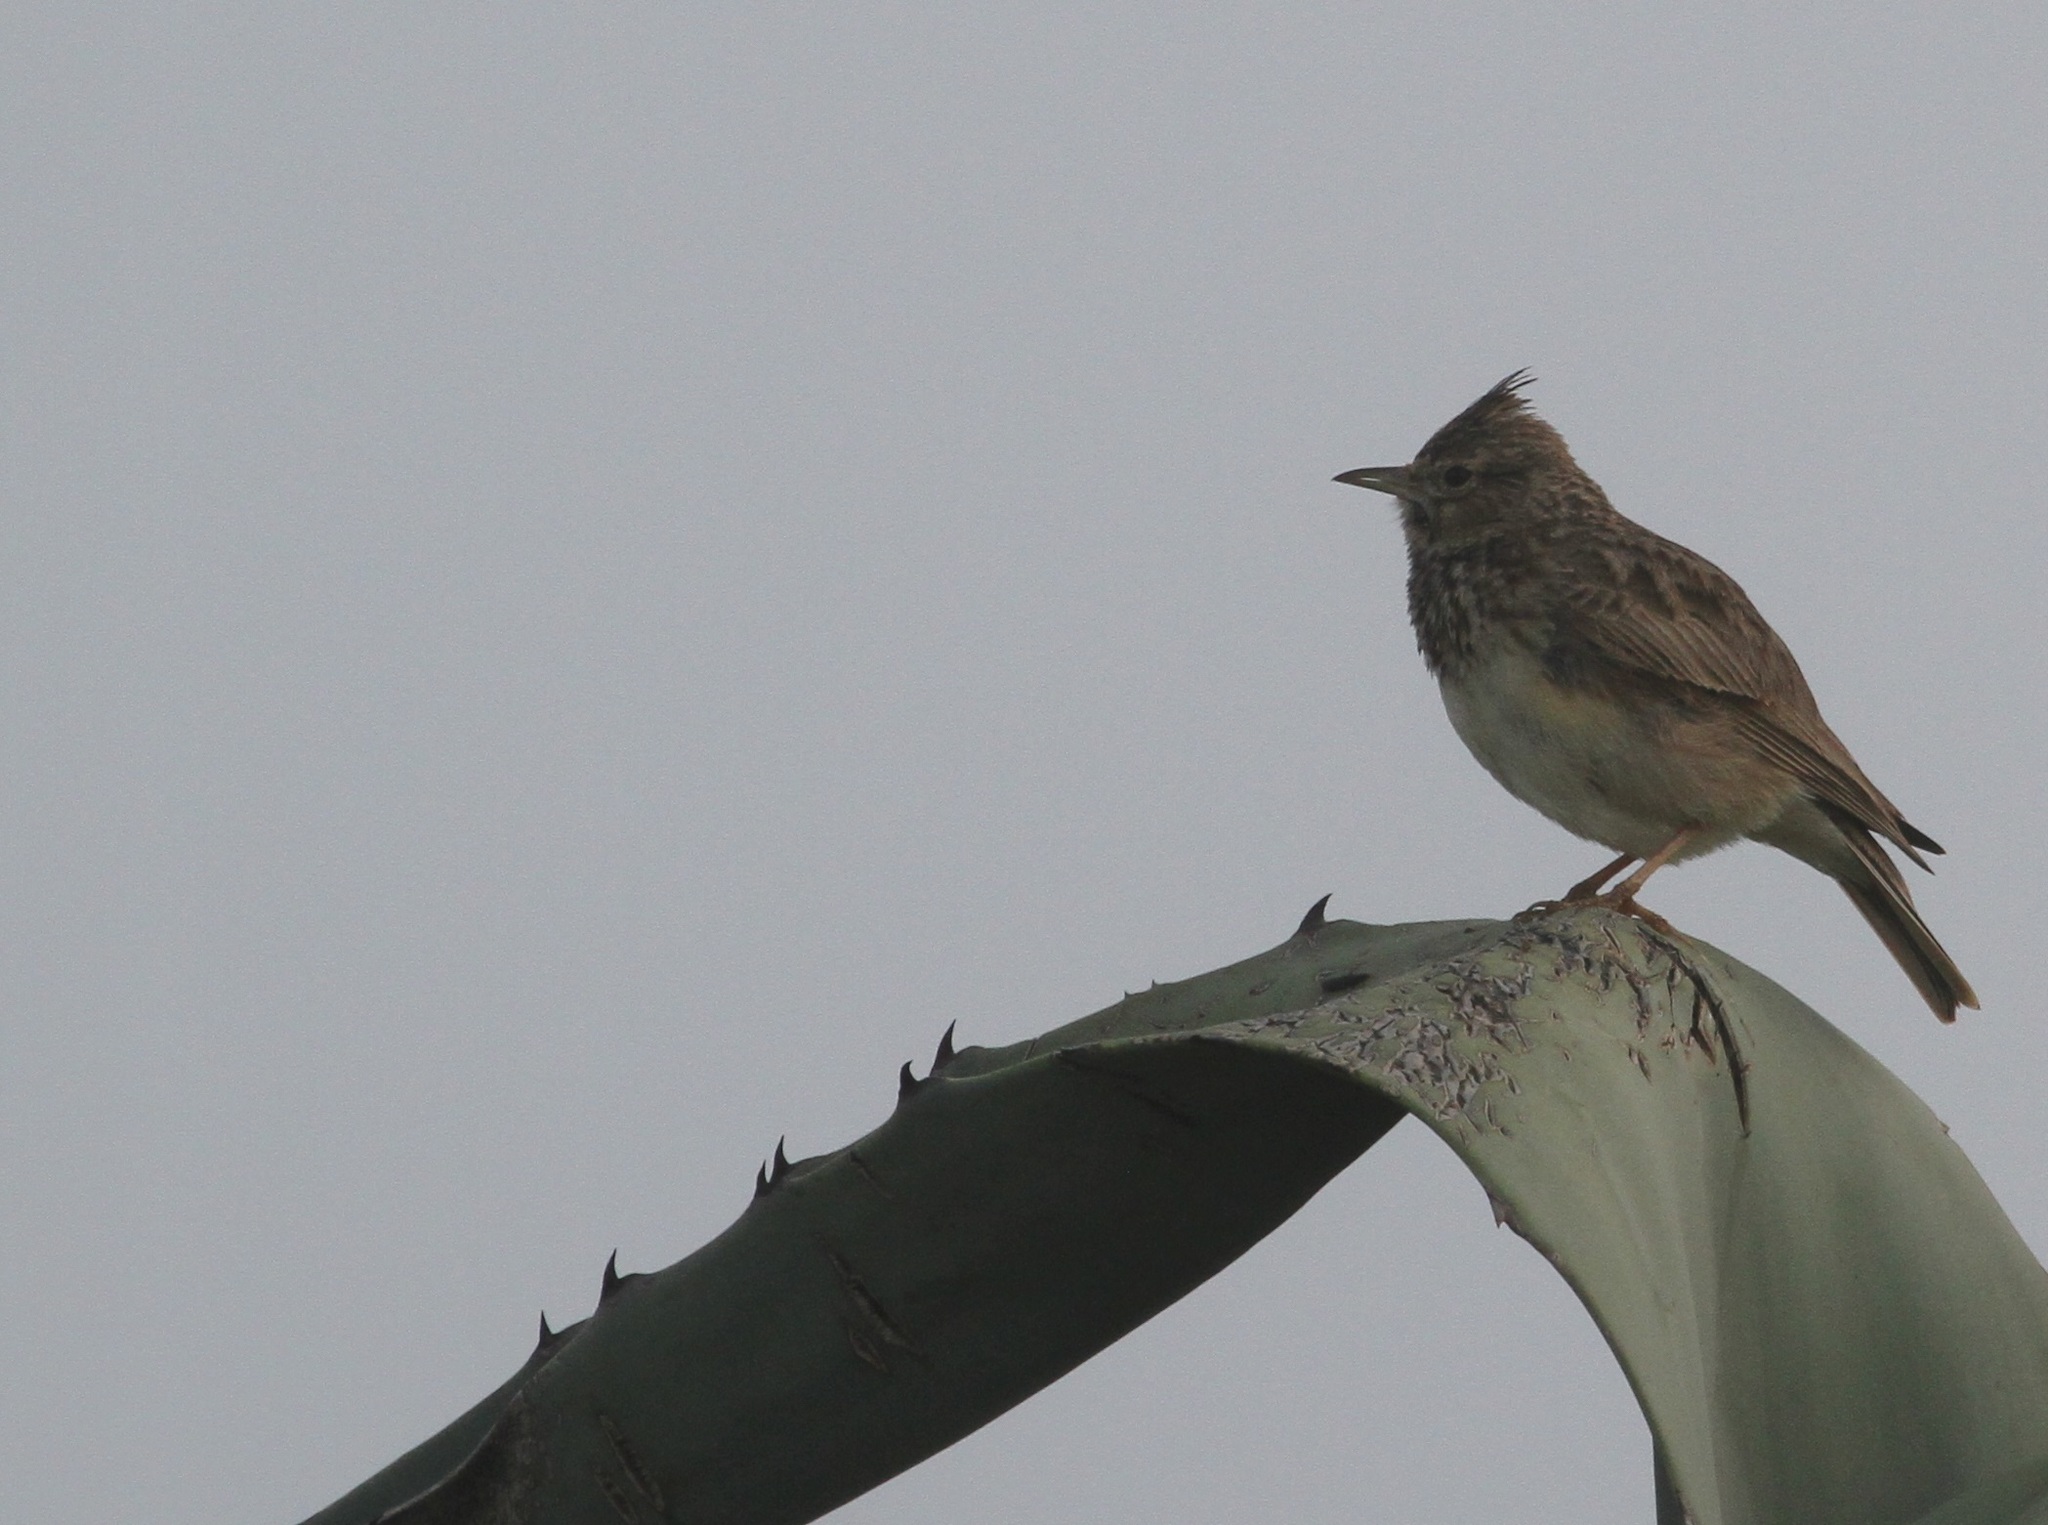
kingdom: Animalia
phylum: Chordata
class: Aves
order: Passeriformes
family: Alaudidae
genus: Galerida
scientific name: Galerida theklae
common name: Thekla lark
